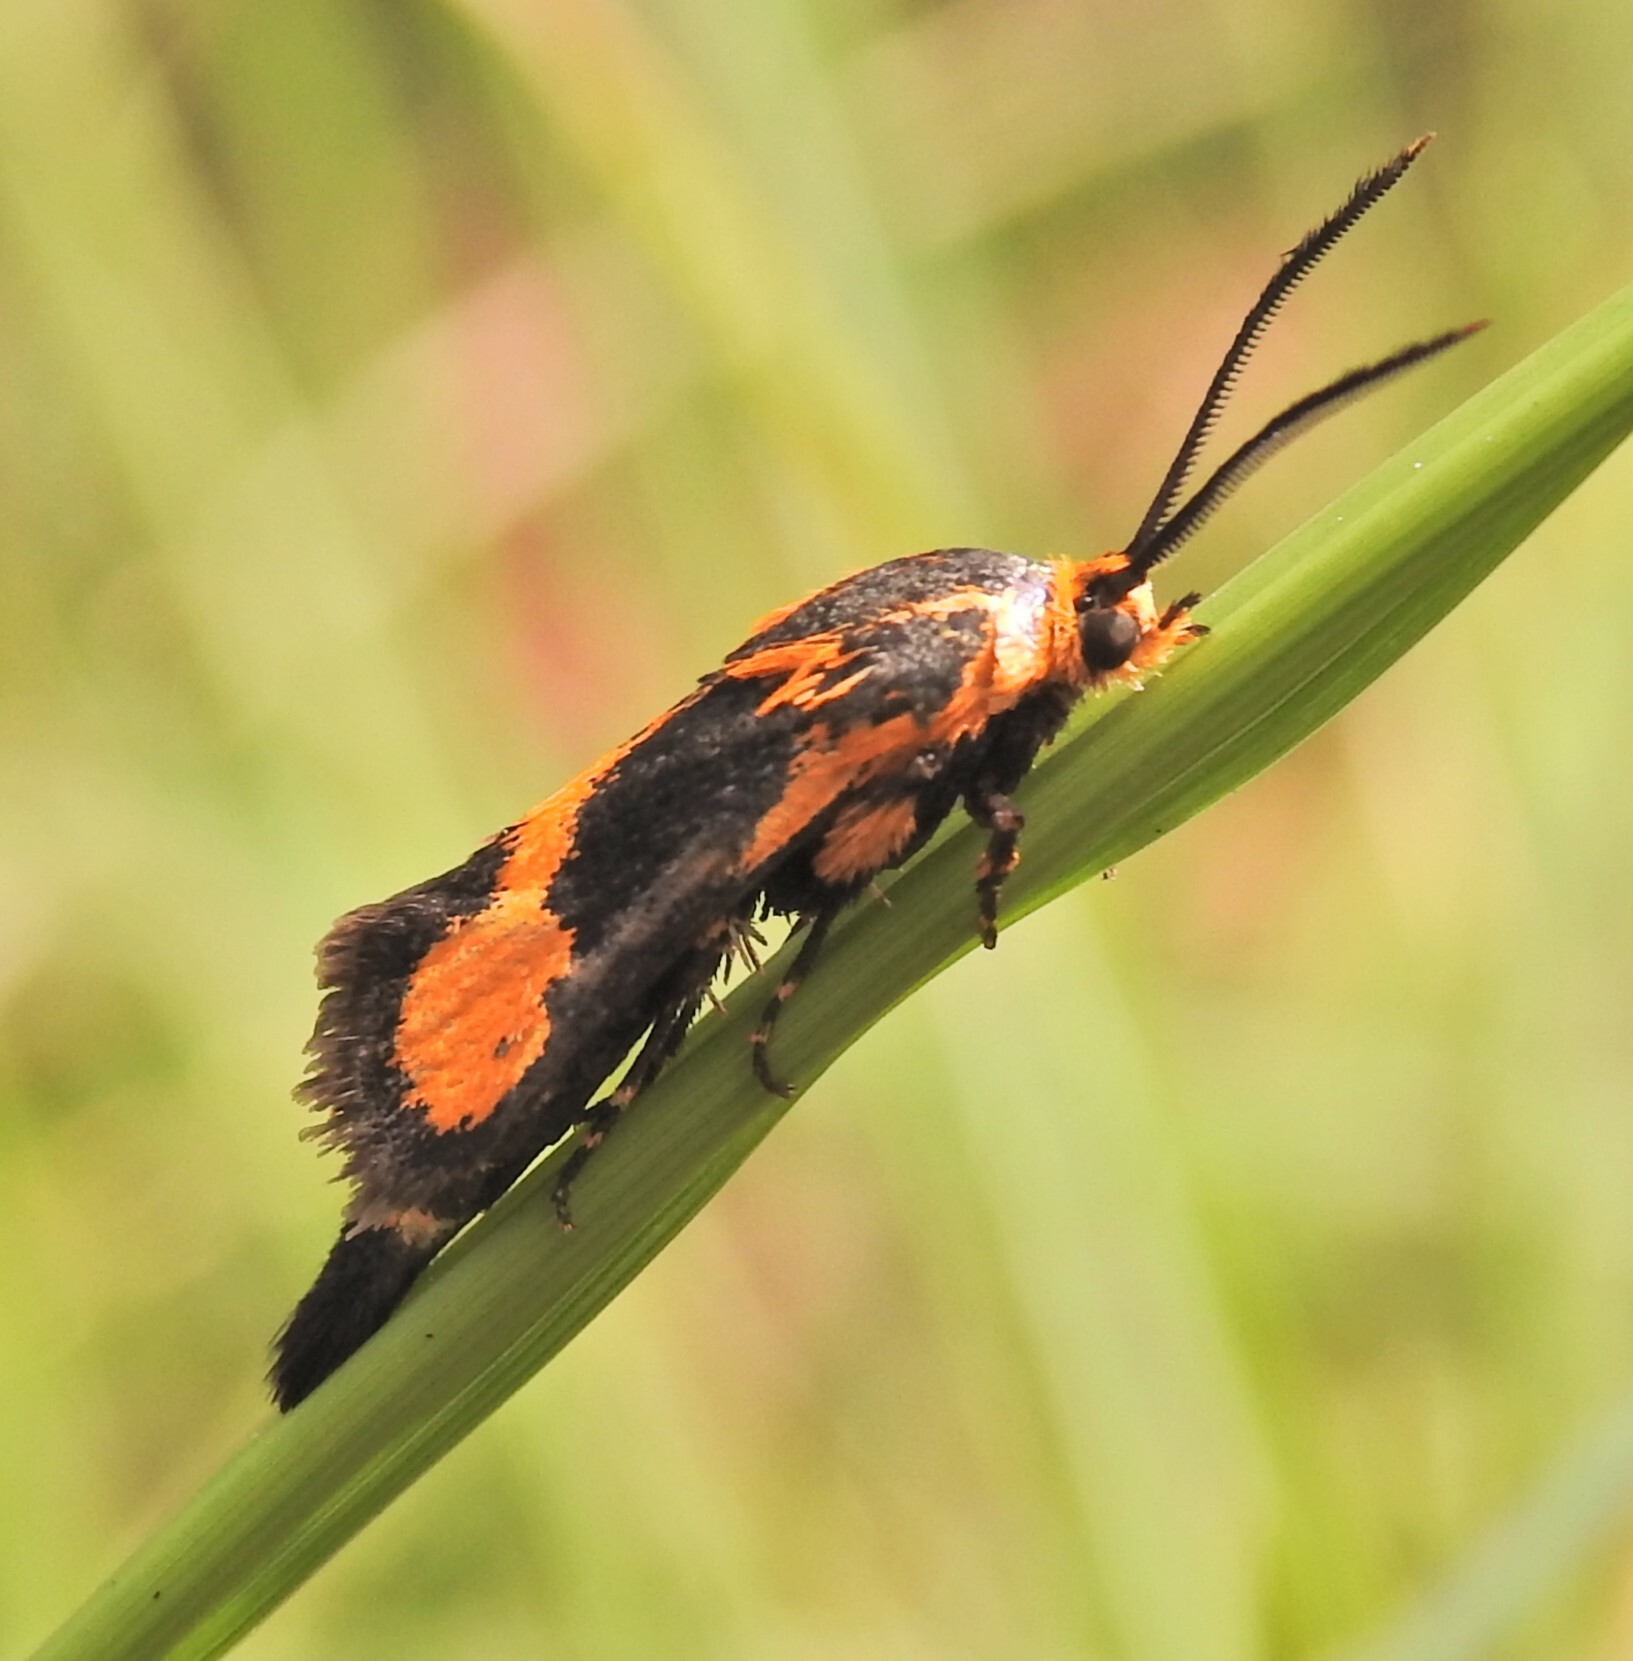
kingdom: Animalia
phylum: Arthropoda
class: Insecta
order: Lepidoptera
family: Brachodidae
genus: Miscera
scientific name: Miscera homotona
